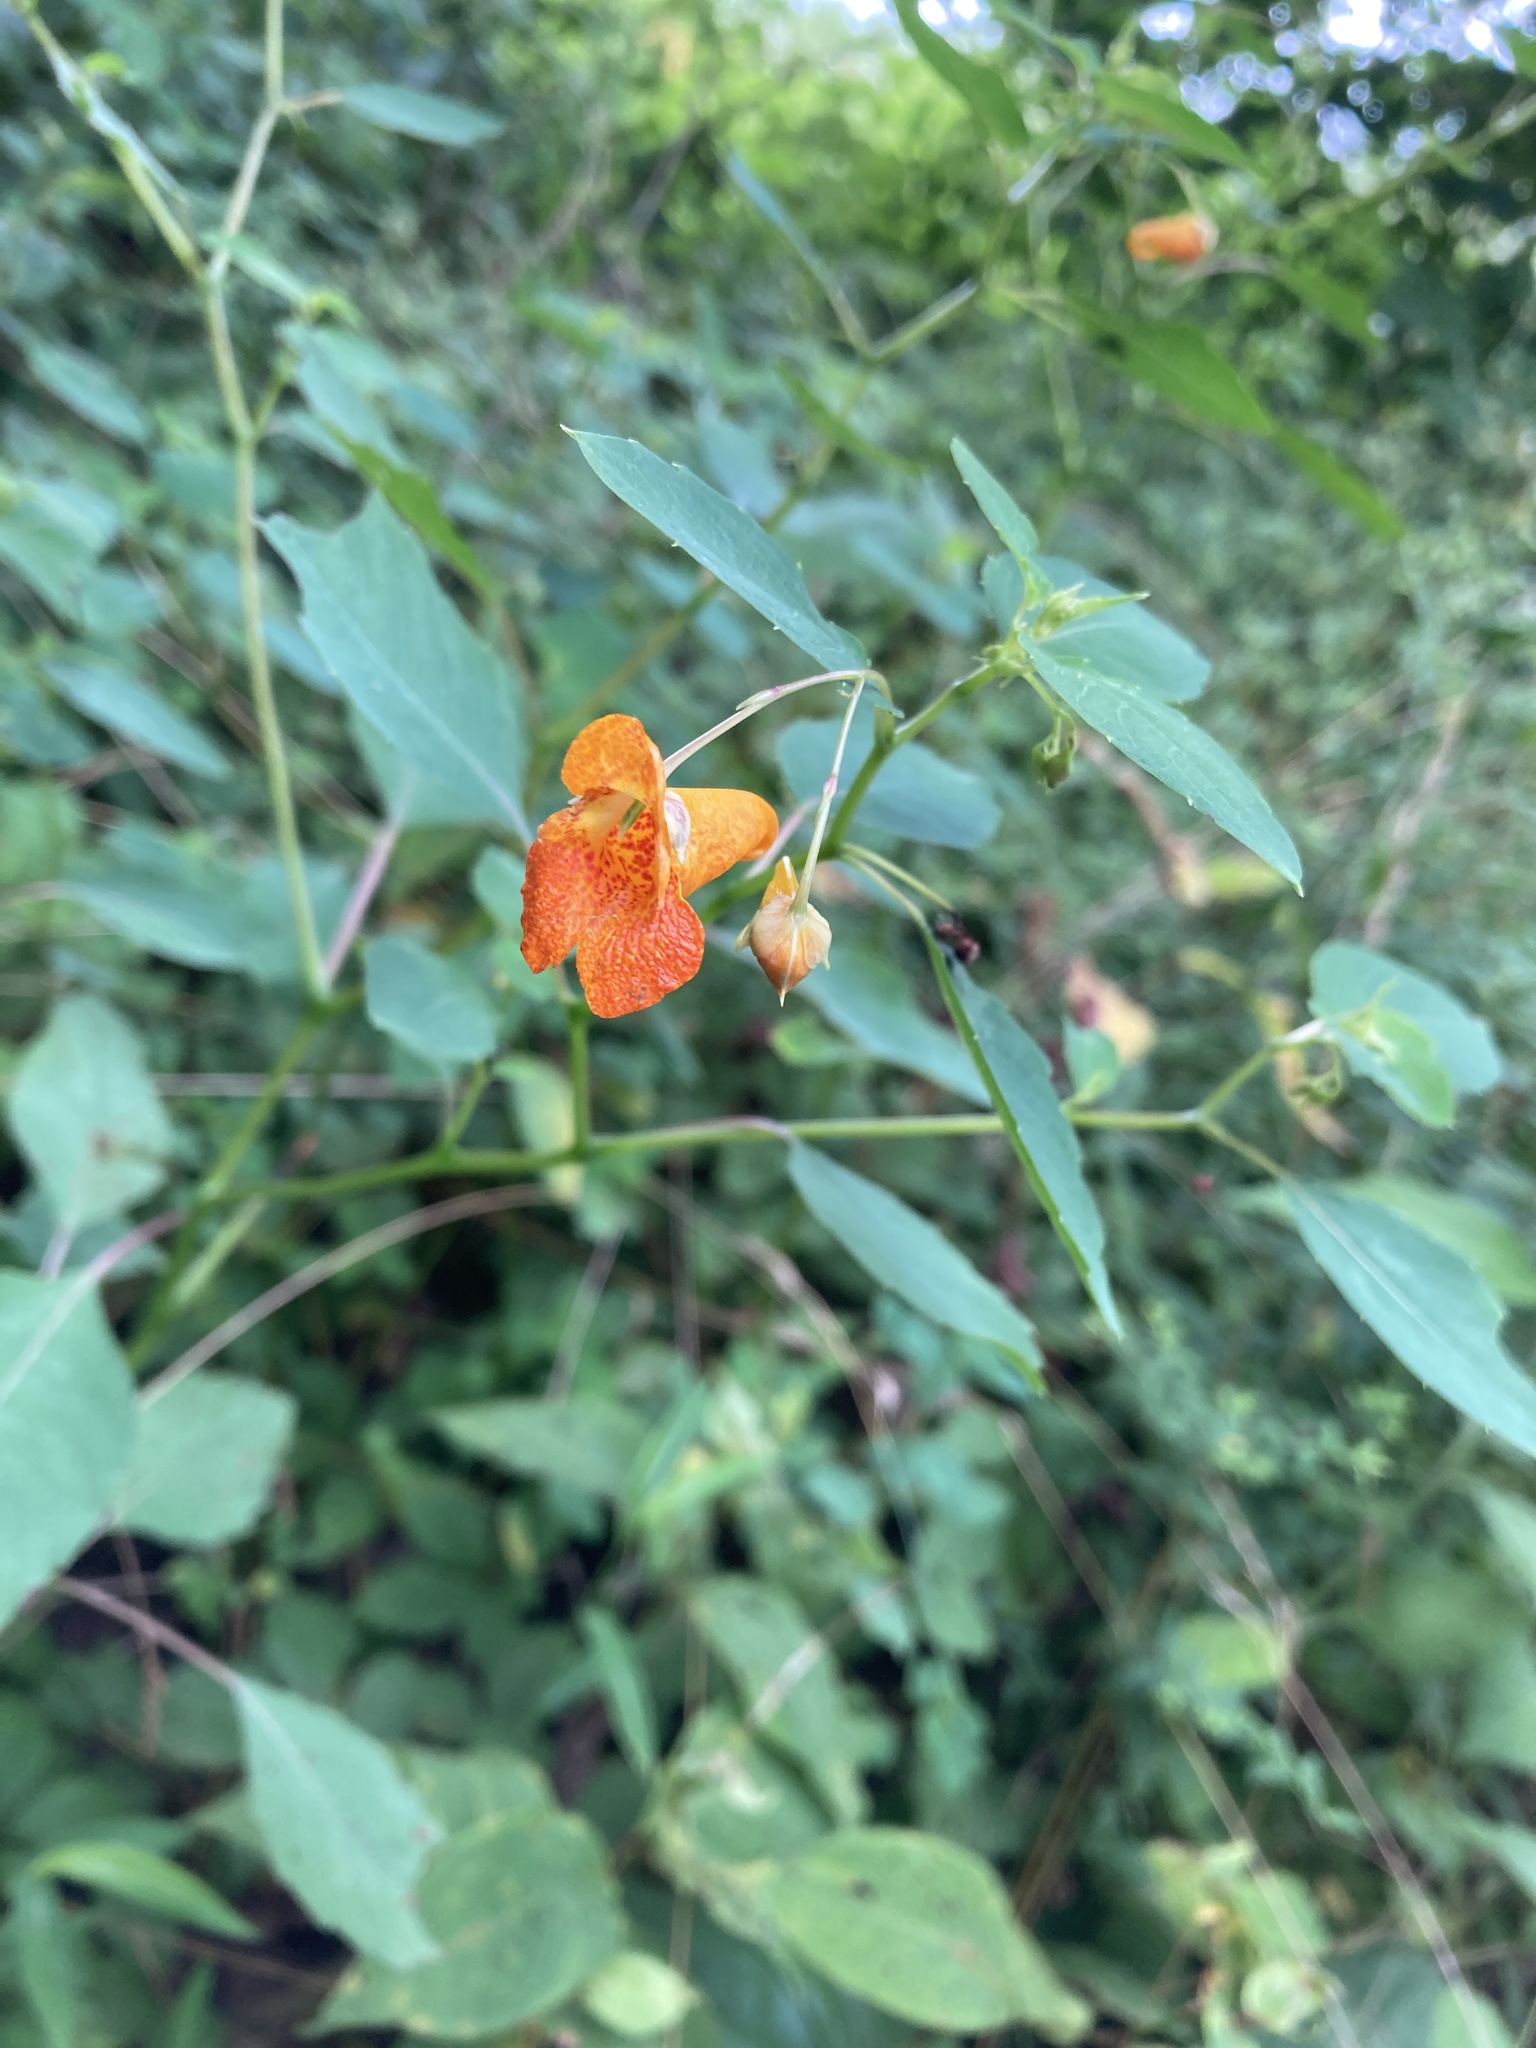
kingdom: Plantae
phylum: Tracheophyta
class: Magnoliopsida
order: Ericales
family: Balsaminaceae
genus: Impatiens
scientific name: Impatiens capensis
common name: Orange balsam
